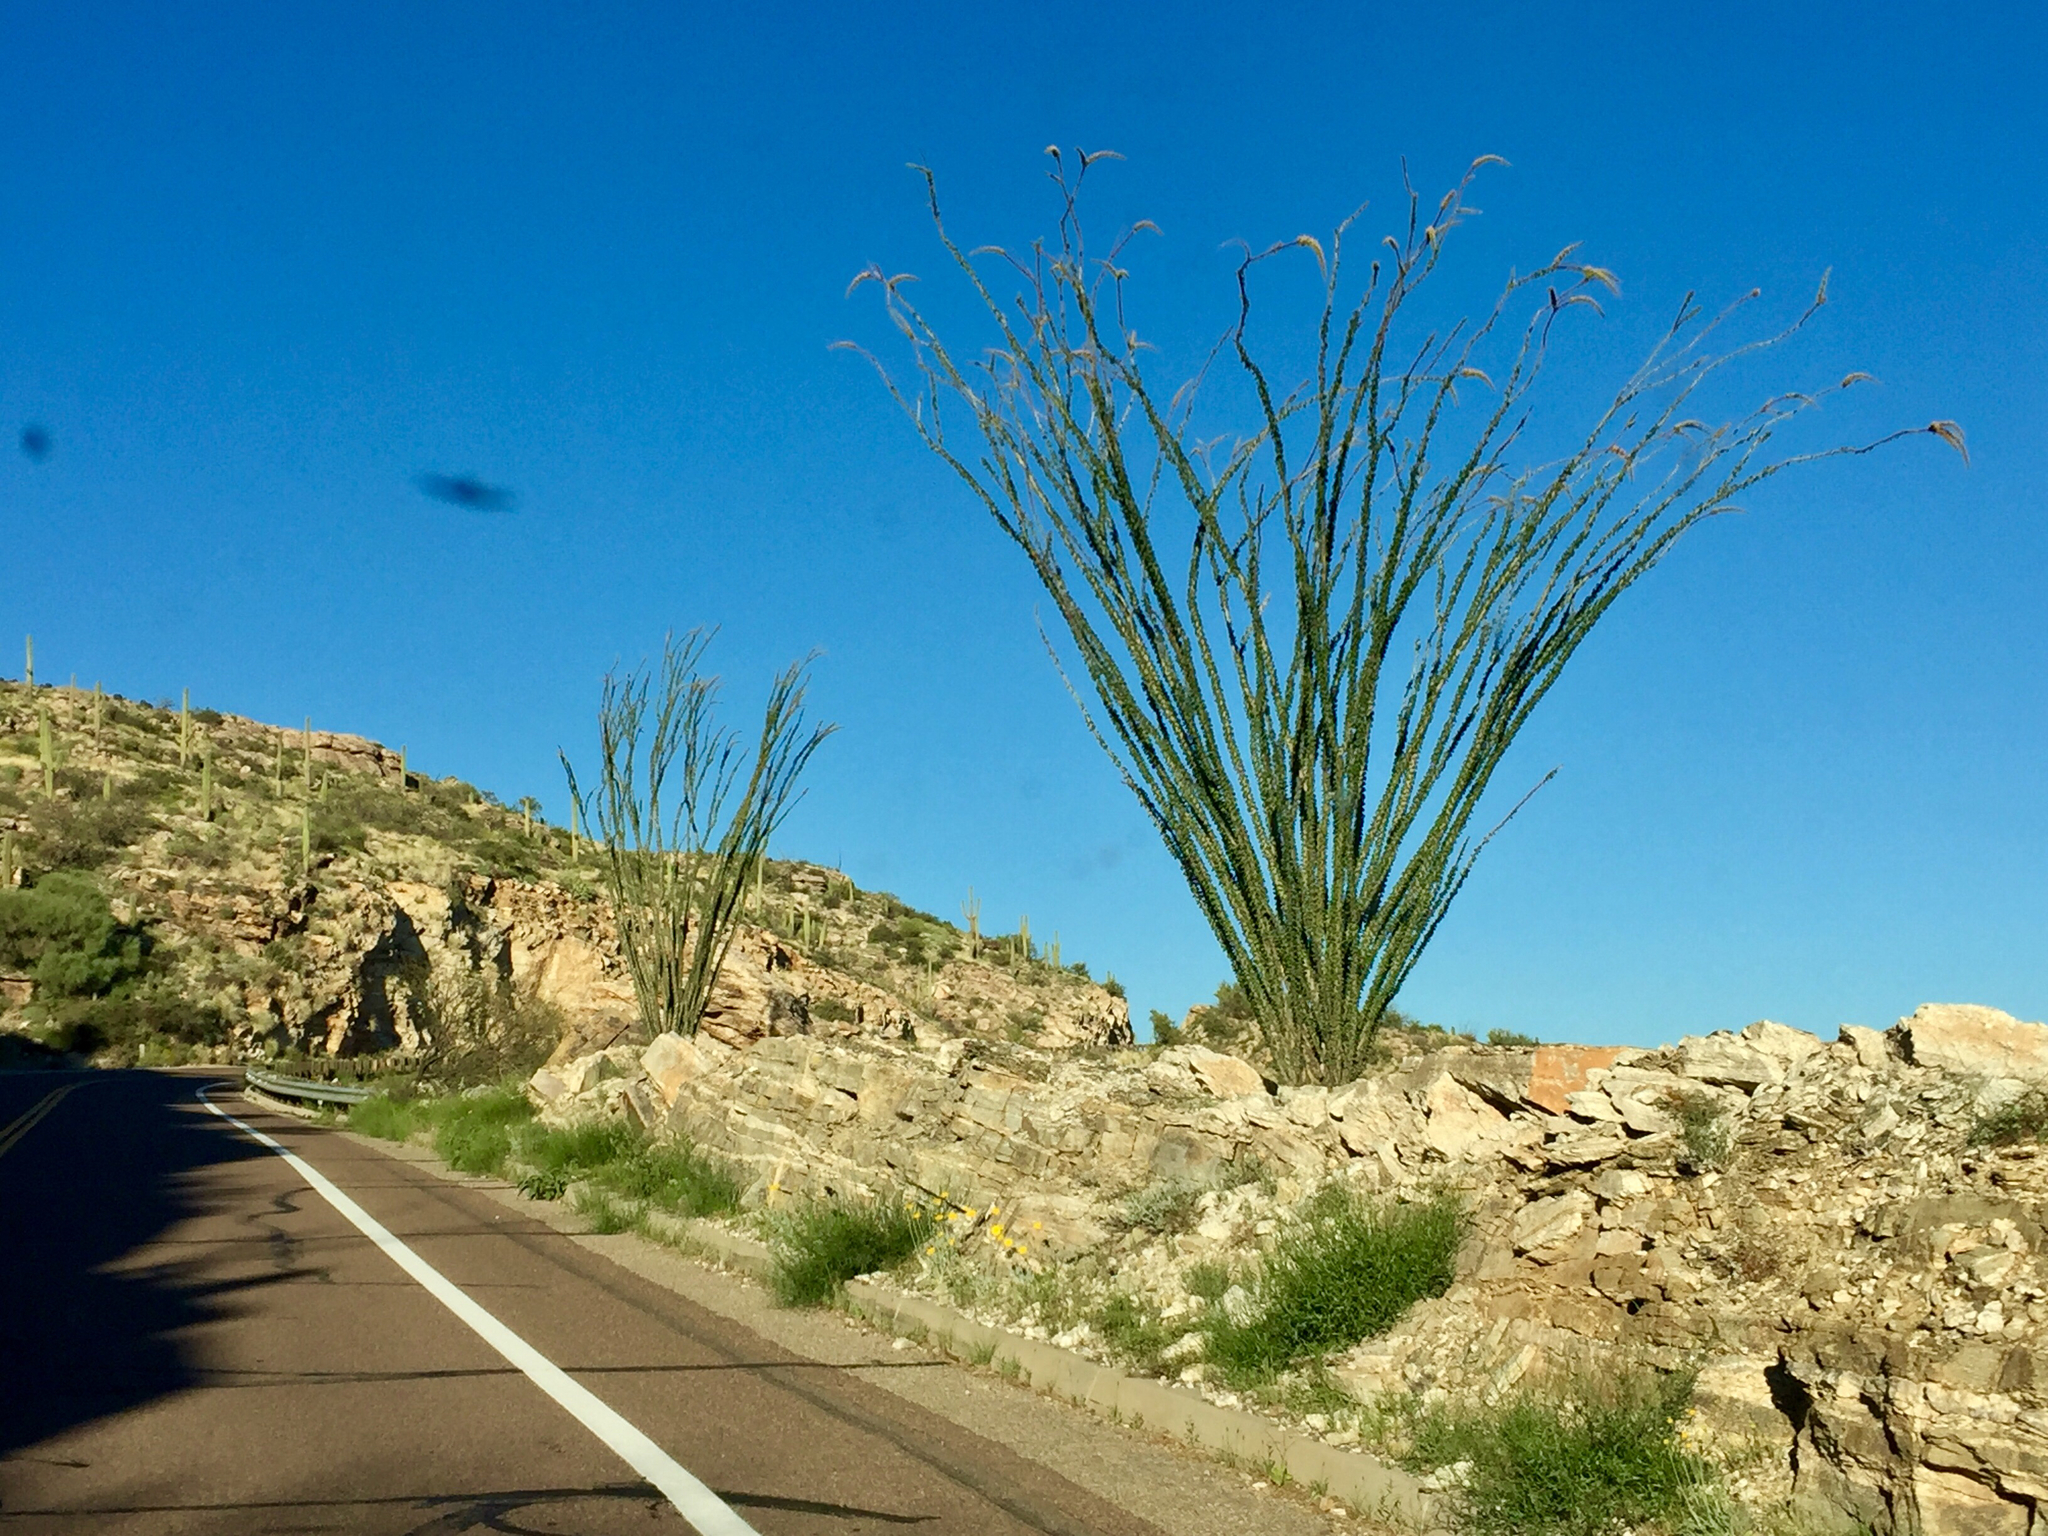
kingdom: Plantae
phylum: Tracheophyta
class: Magnoliopsida
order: Ericales
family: Fouquieriaceae
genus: Fouquieria
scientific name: Fouquieria splendens
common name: Vine-cactus
